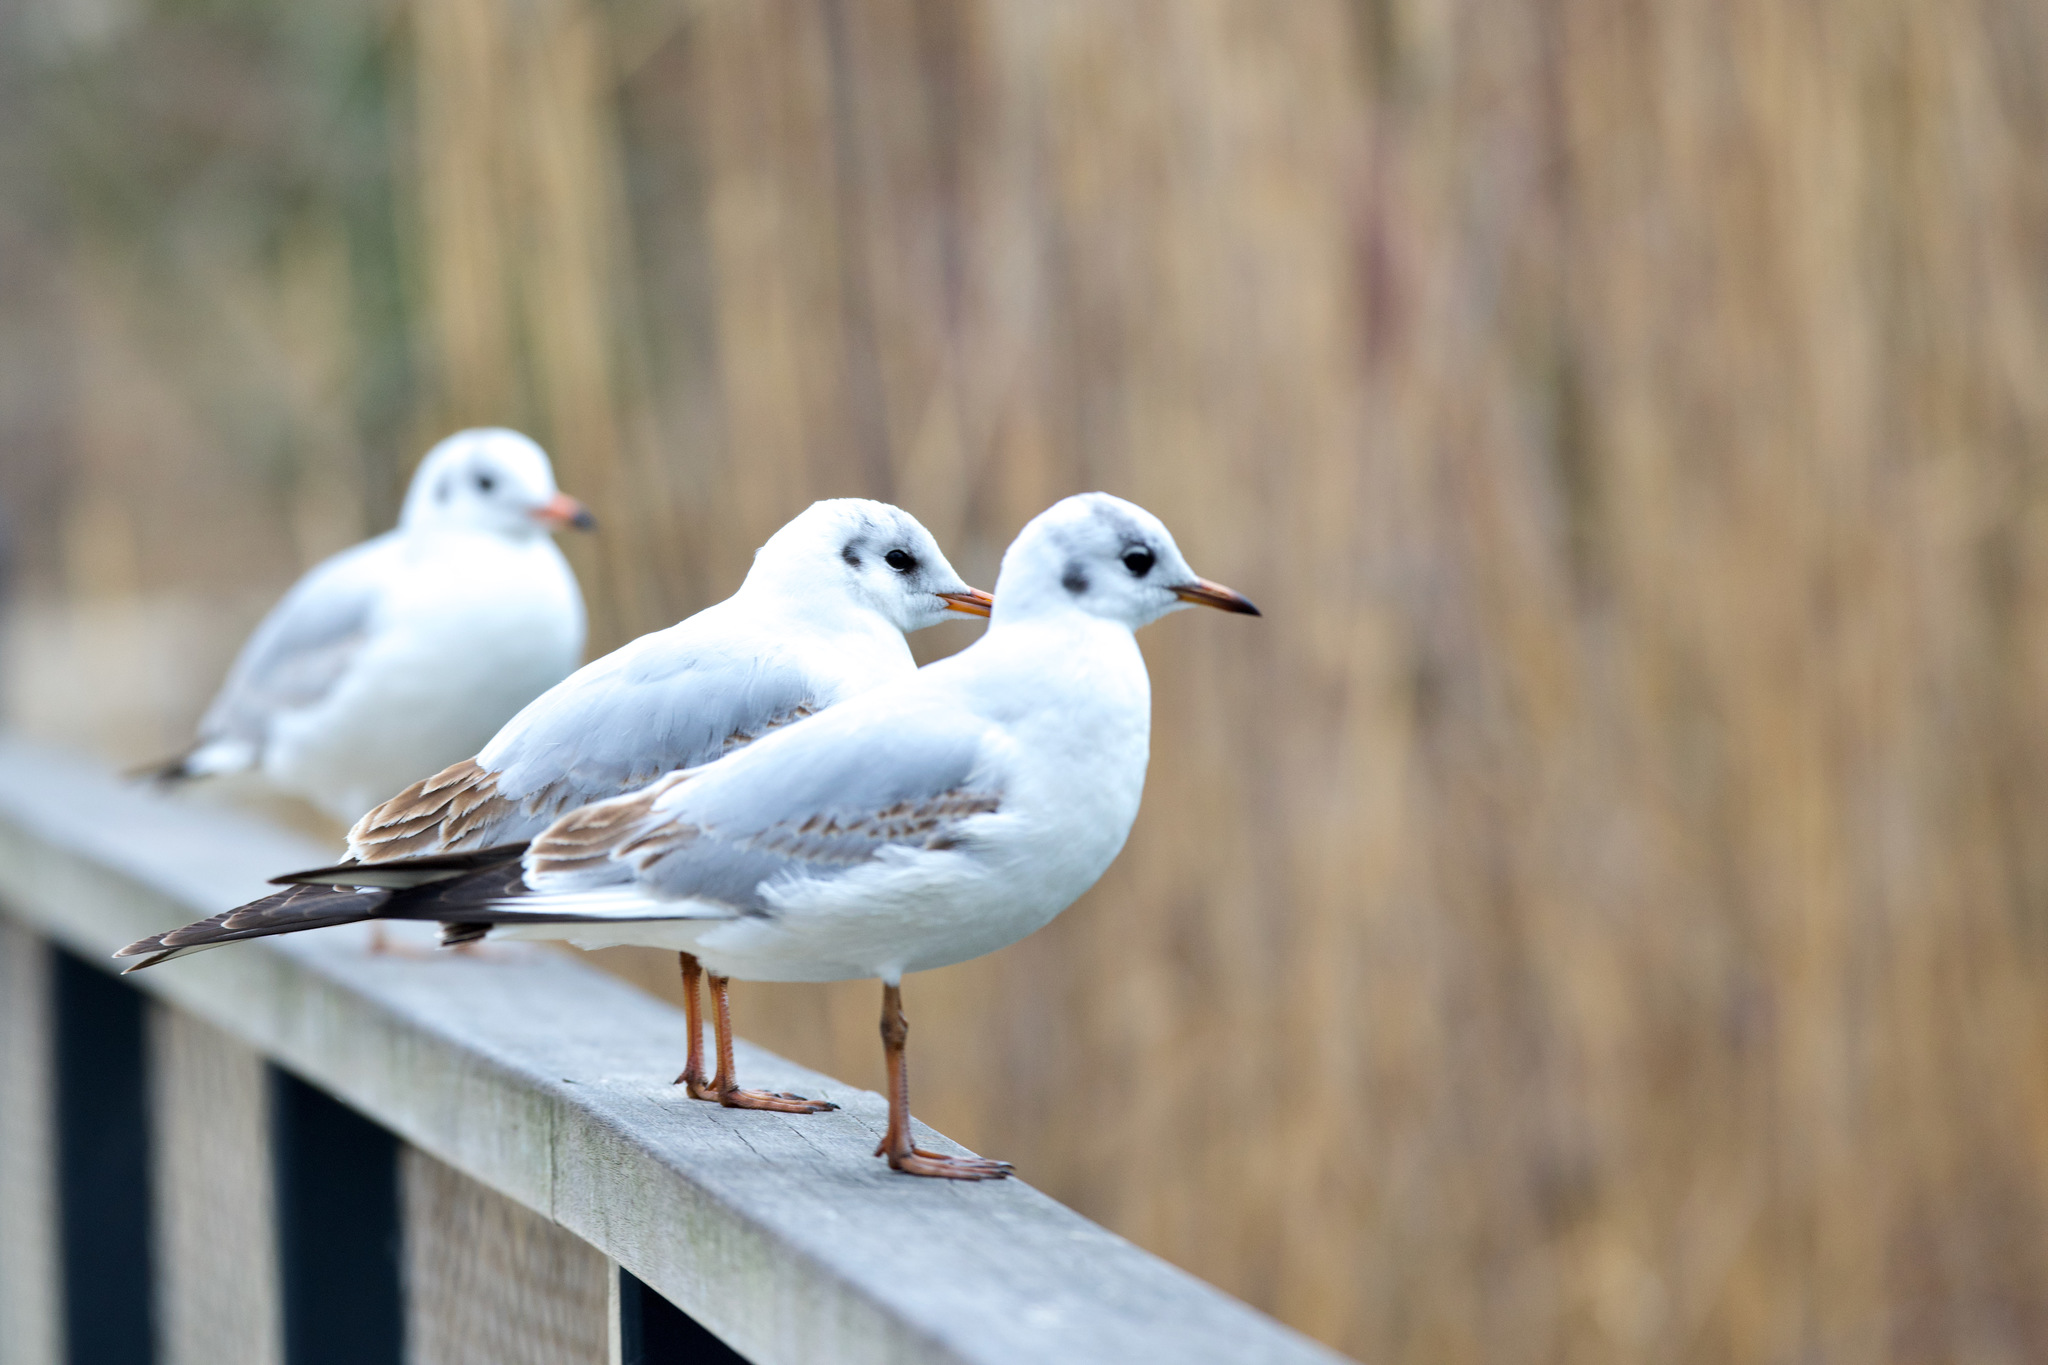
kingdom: Animalia
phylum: Chordata
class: Aves
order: Charadriiformes
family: Laridae
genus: Chroicocephalus
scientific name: Chroicocephalus ridibundus
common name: Black-headed gull
